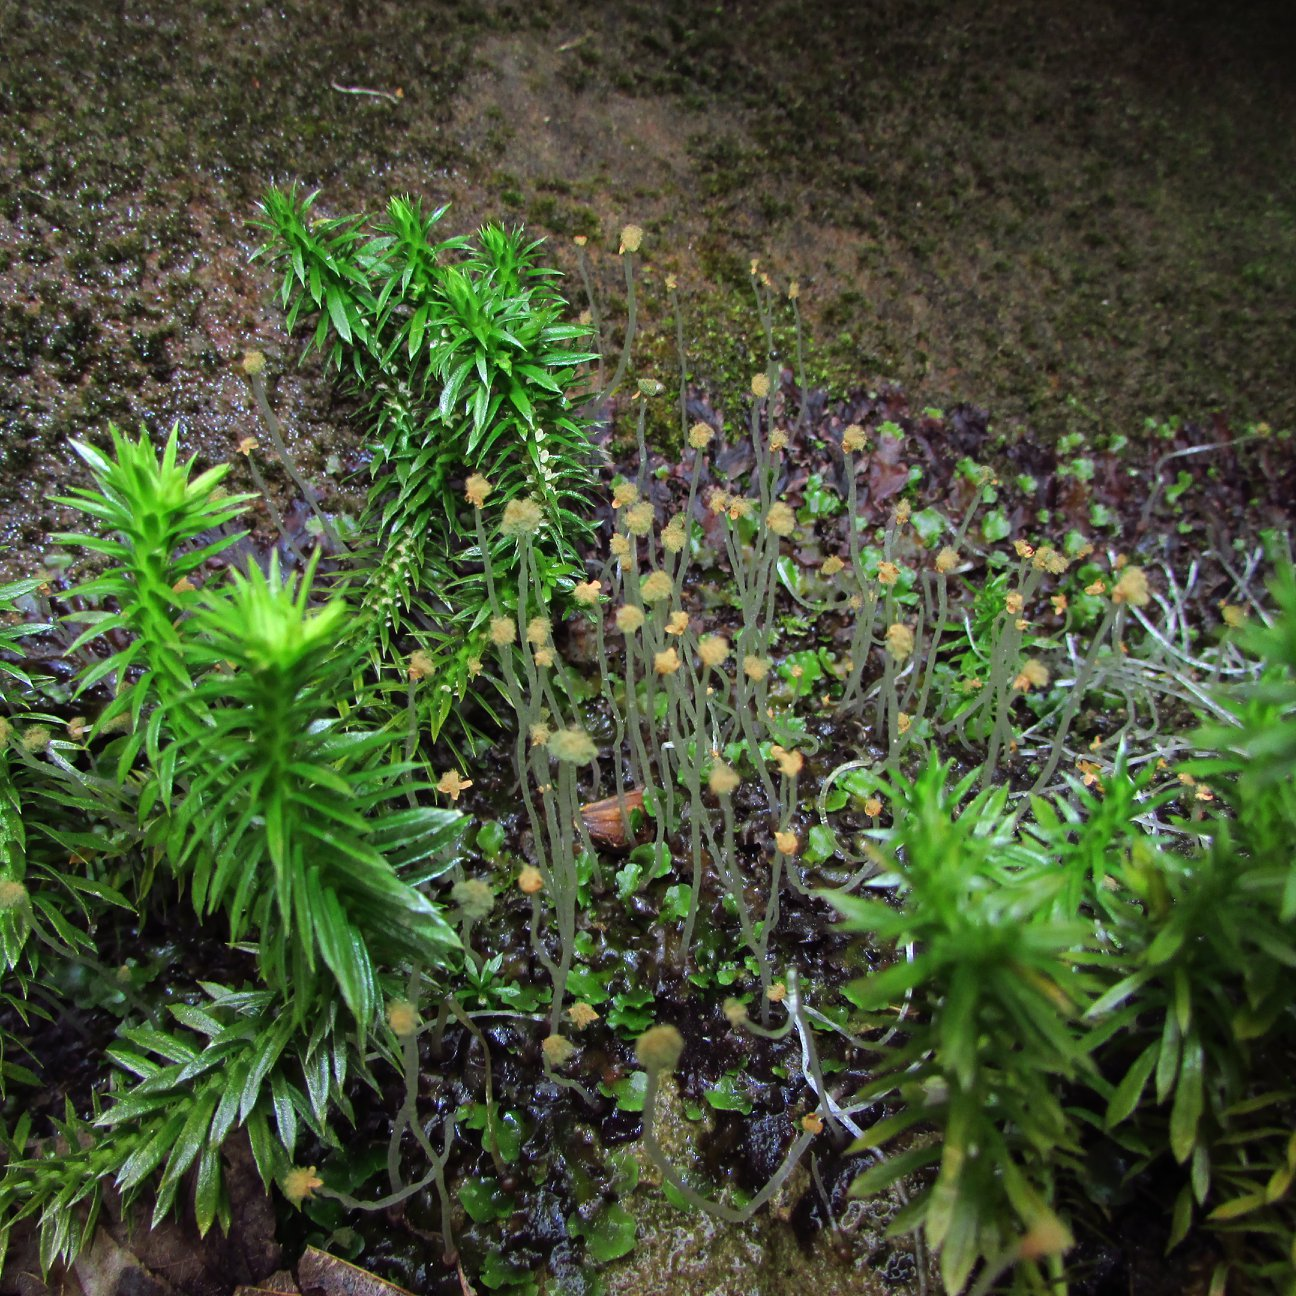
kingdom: Plantae
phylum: Marchantiophyta
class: Jungermanniopsida
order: Pelliales
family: Pelliaceae
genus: Pellia
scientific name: Pellia epiphylla
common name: Common pellia
